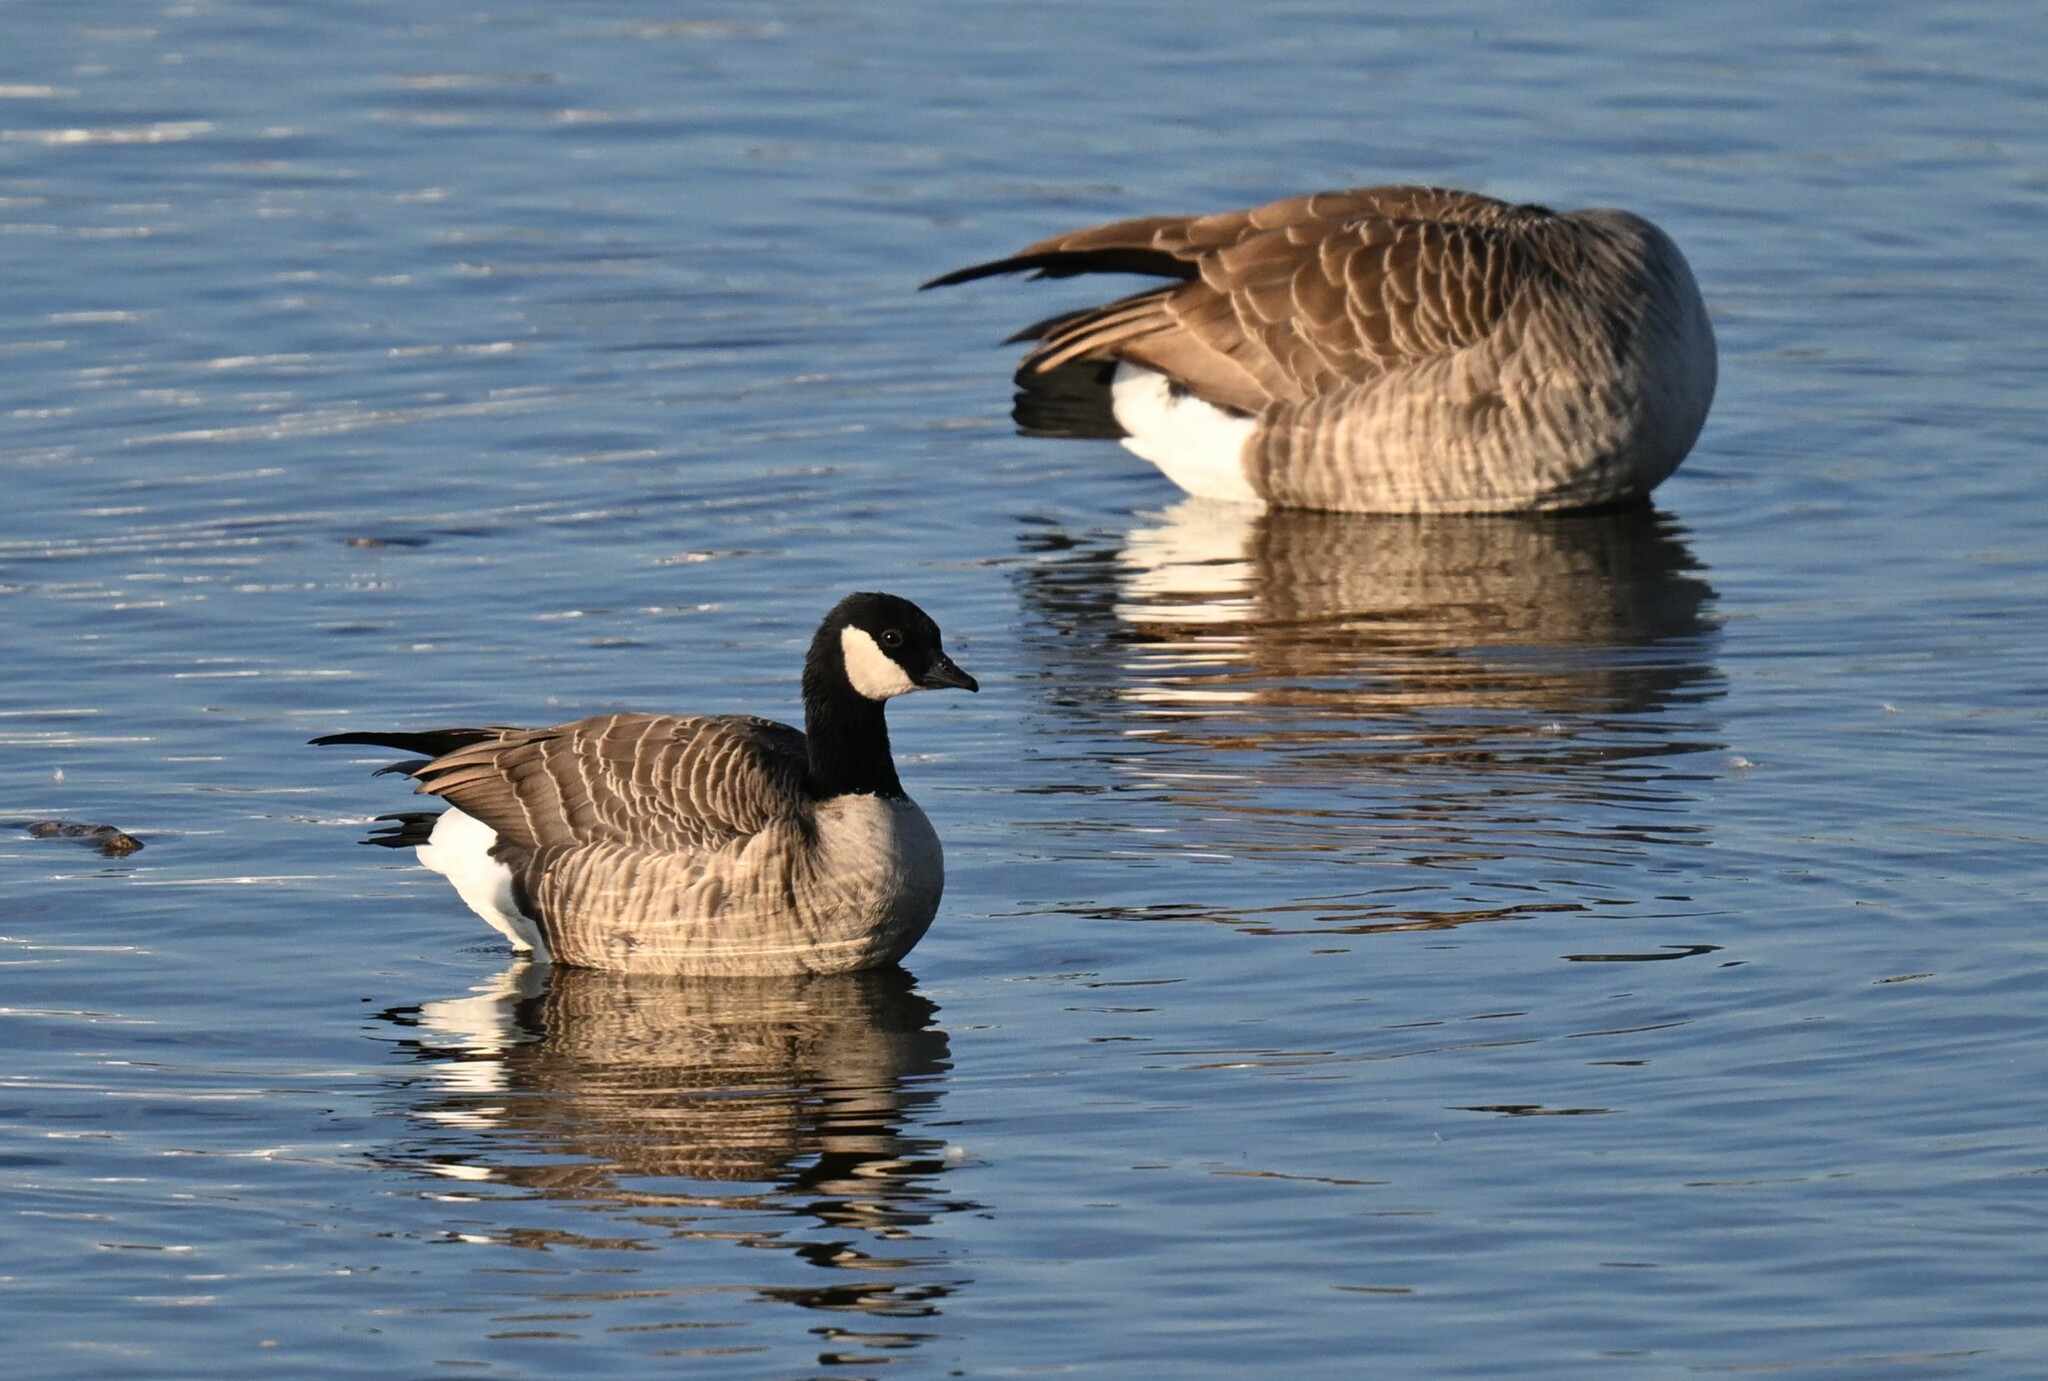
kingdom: Animalia
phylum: Chordata
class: Aves
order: Anseriformes
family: Anatidae
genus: Branta
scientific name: Branta hutchinsii
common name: Cackling goose
